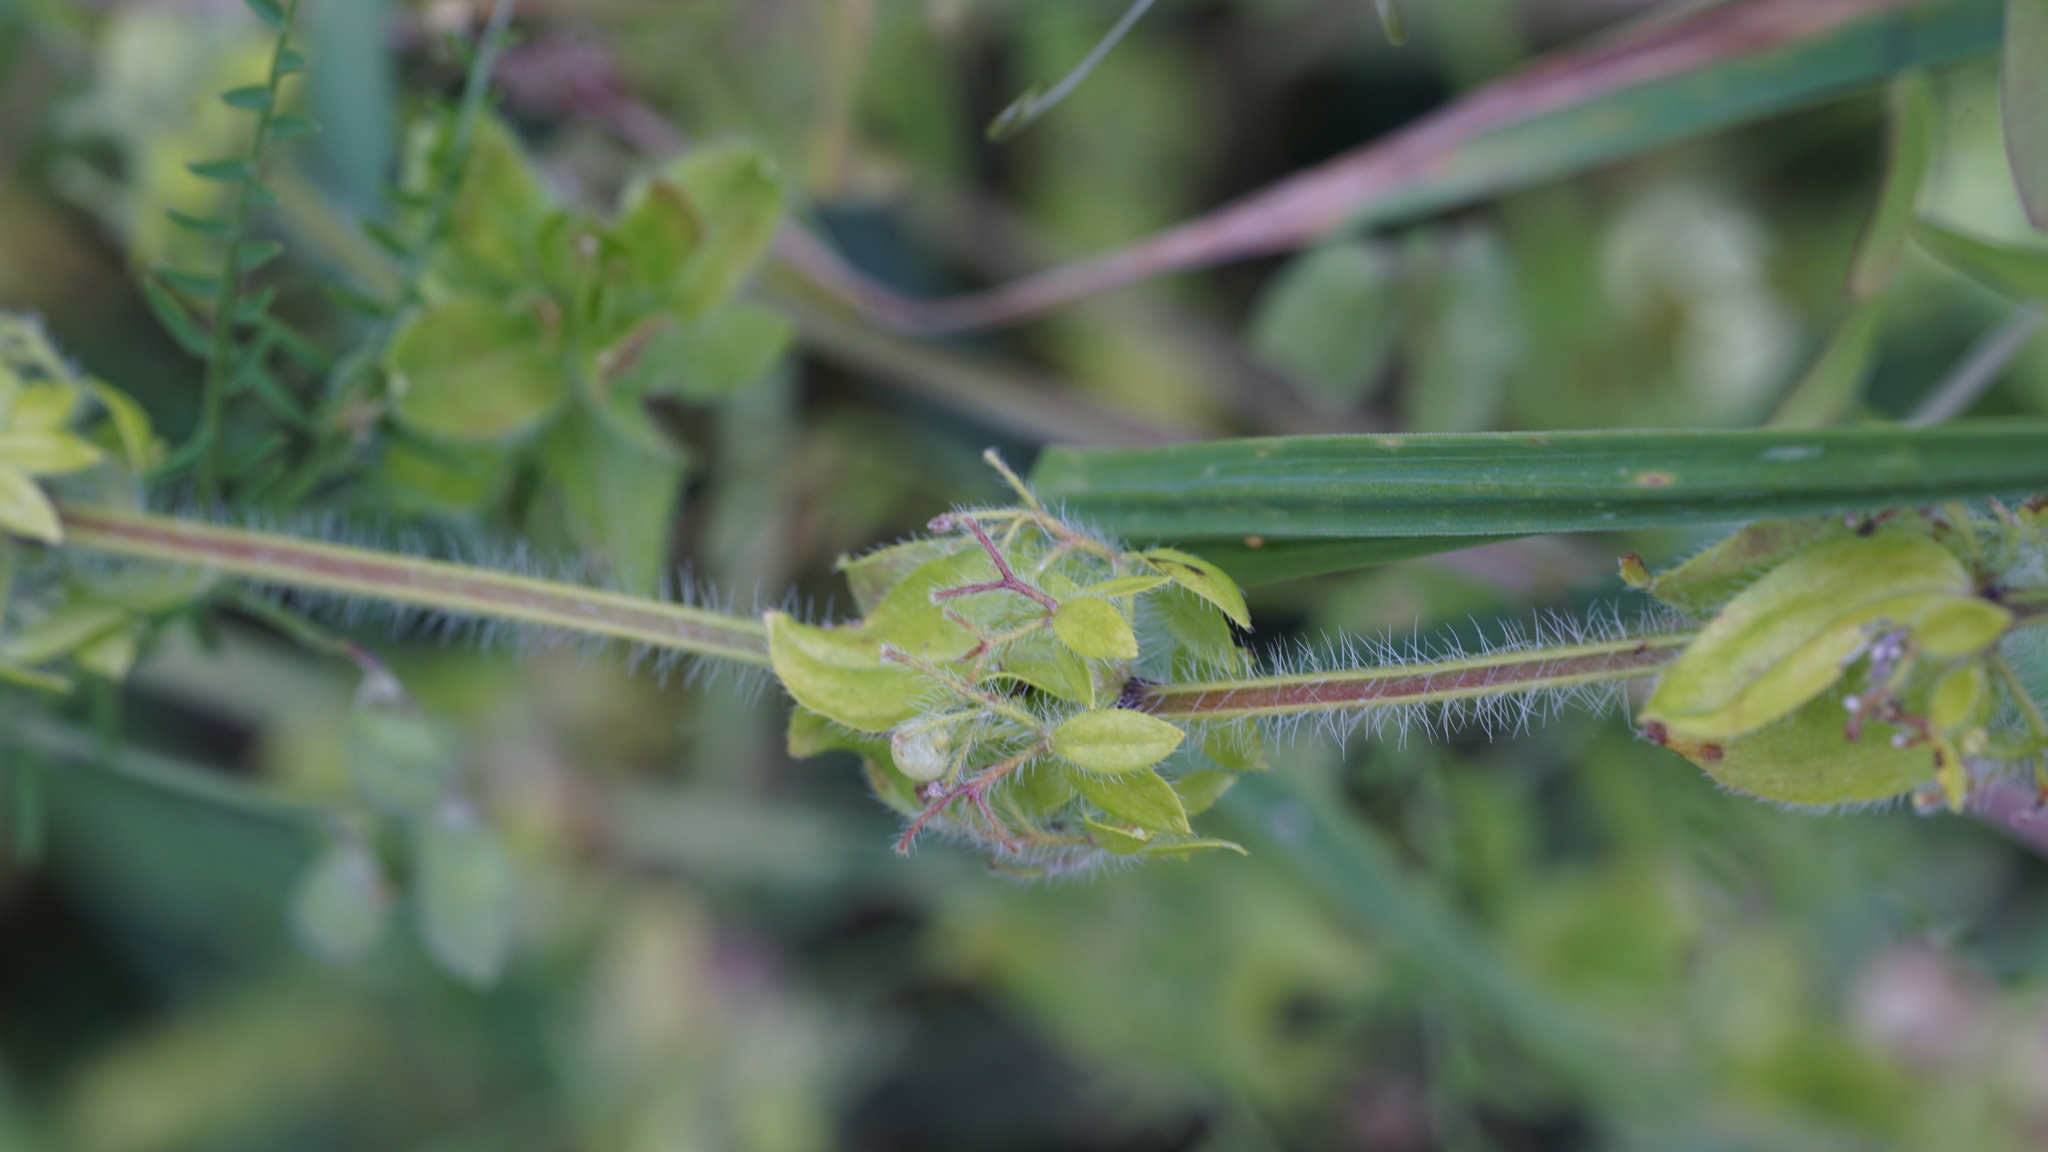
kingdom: Plantae
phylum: Tracheophyta
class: Magnoliopsida
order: Gentianales
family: Rubiaceae
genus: Cruciata
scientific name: Cruciata laevipes
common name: Crosswort
